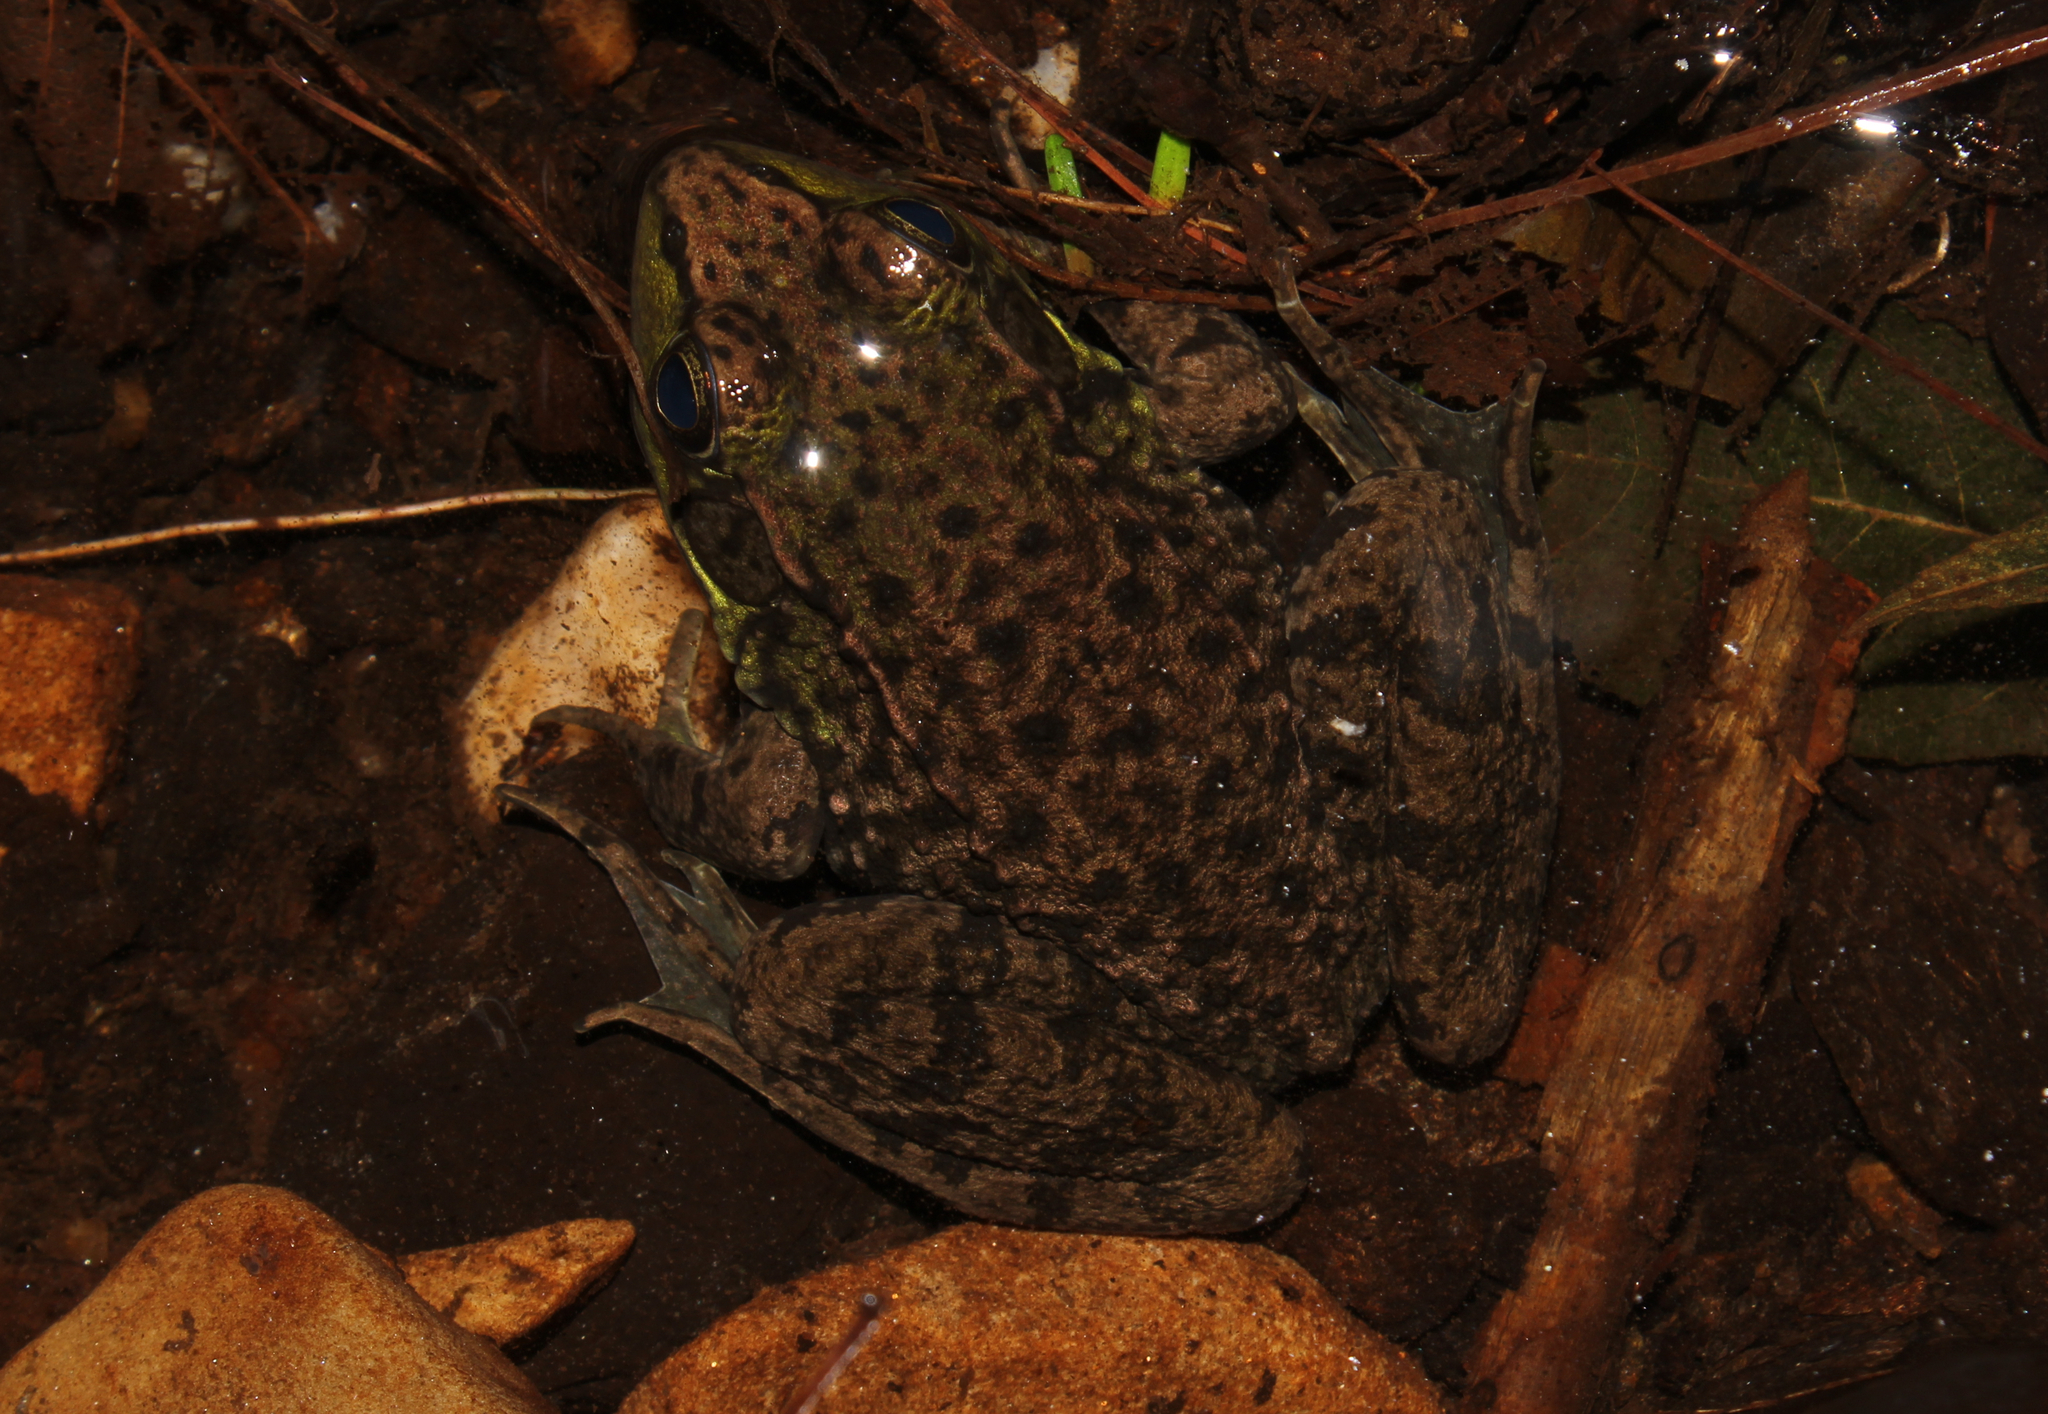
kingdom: Animalia
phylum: Chordata
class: Amphibia
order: Anura
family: Ranidae
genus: Lithobates
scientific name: Lithobates clamitans
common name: Green frog
